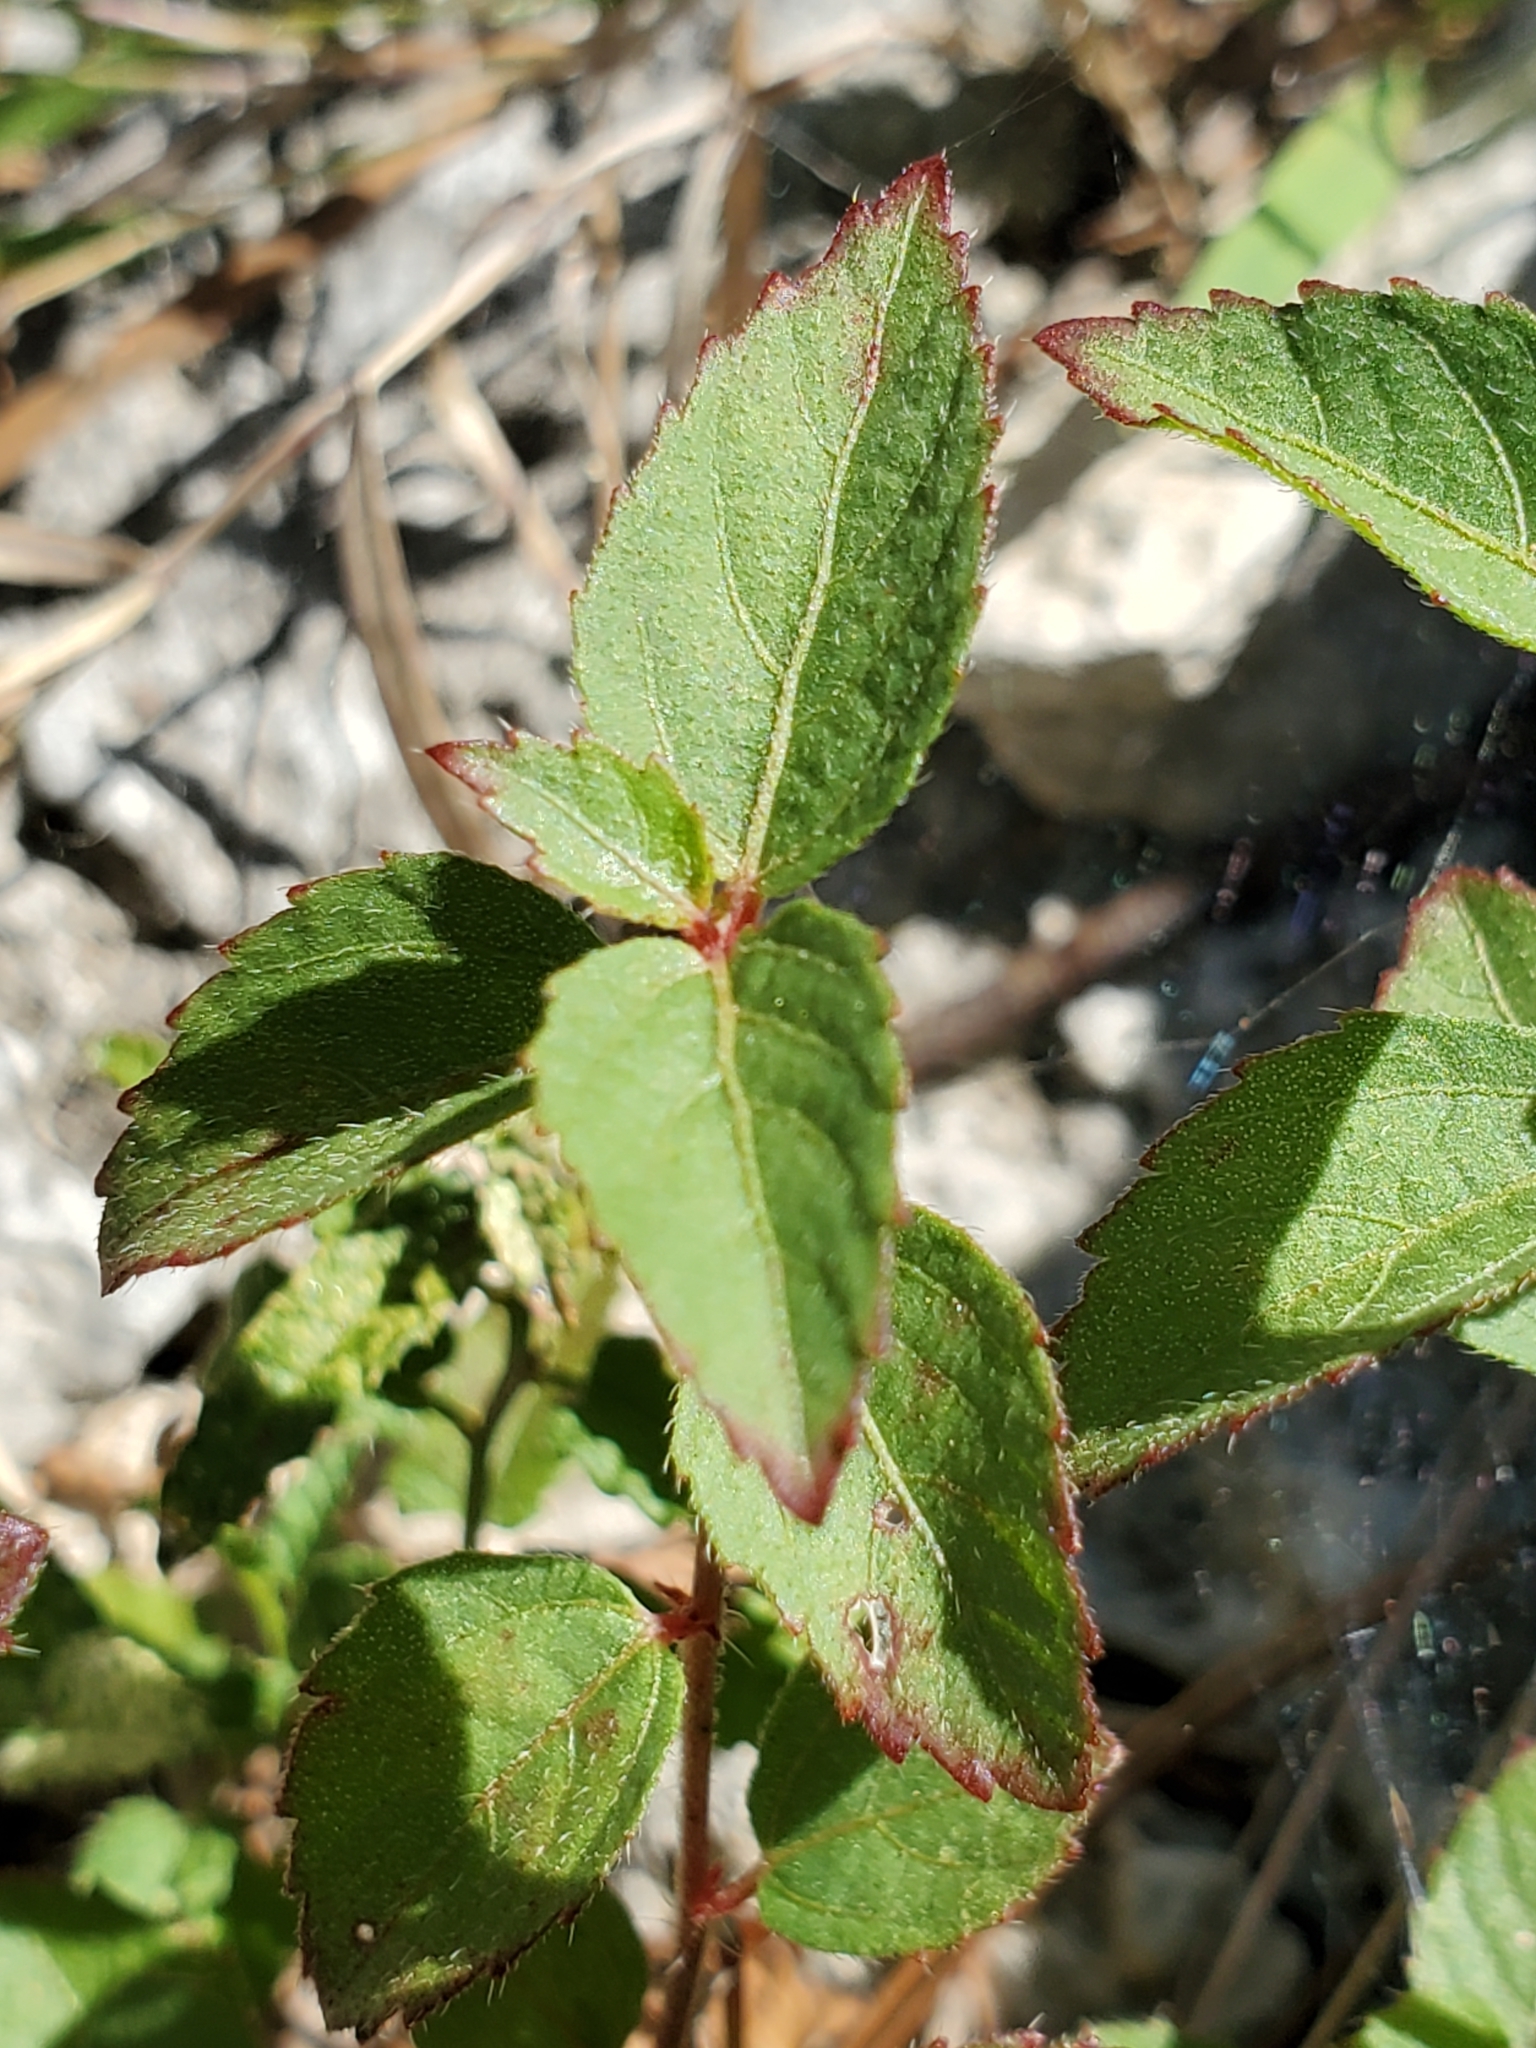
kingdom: Plantae
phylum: Tracheophyta
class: Magnoliopsida
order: Malpighiales
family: Euphorbiaceae
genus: Acalypha
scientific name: Acalypha phleoides
